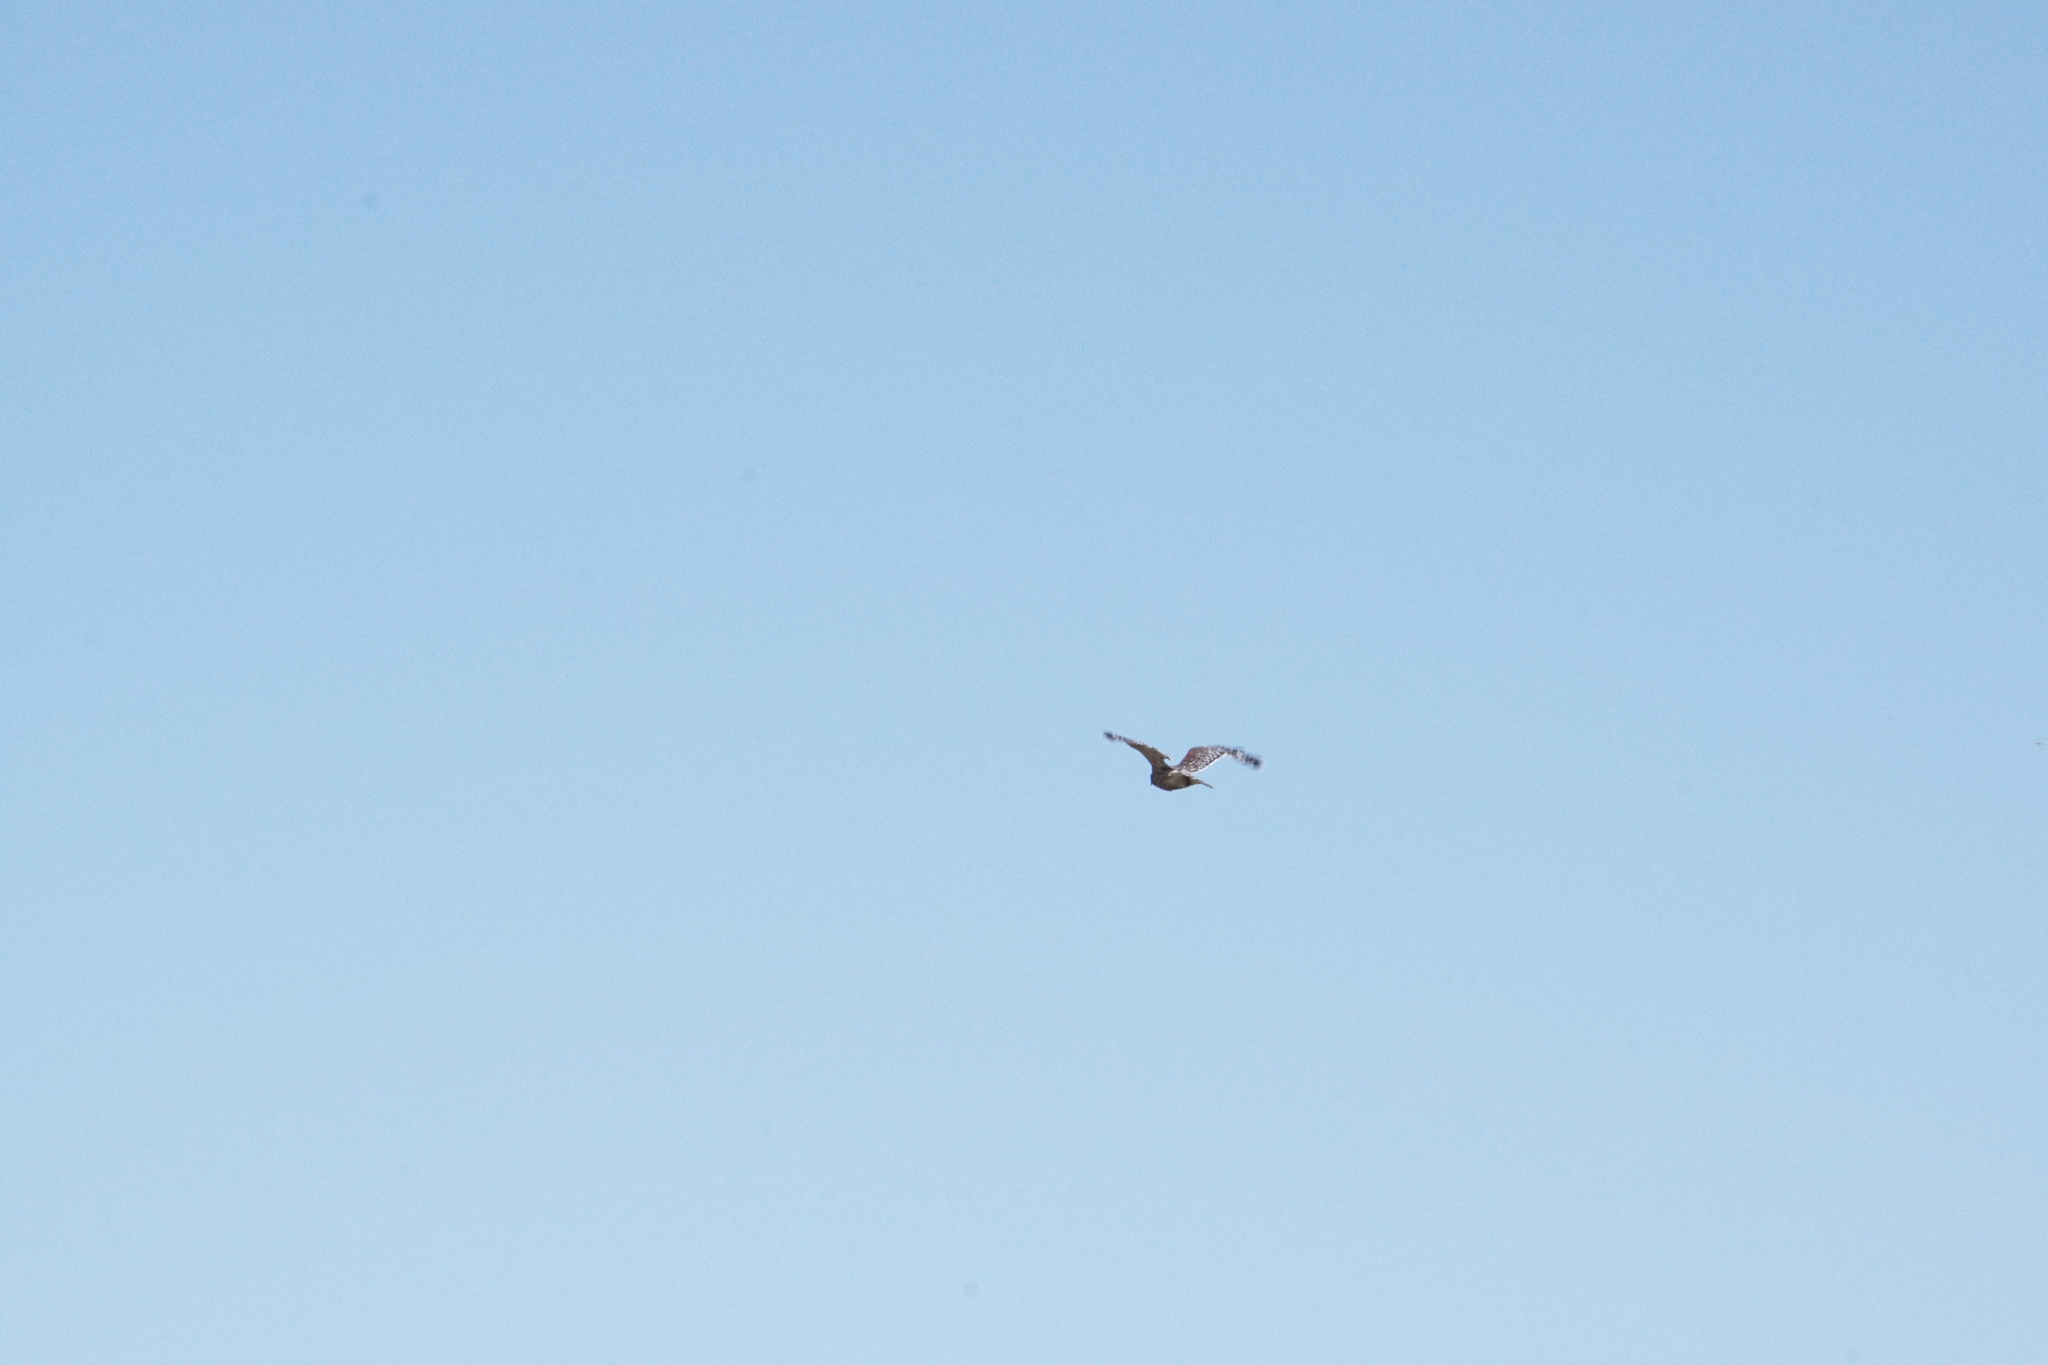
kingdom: Animalia
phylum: Chordata
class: Aves
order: Accipitriformes
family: Accipitridae
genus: Buteo
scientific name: Buteo lineatus
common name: Red-shouldered hawk
